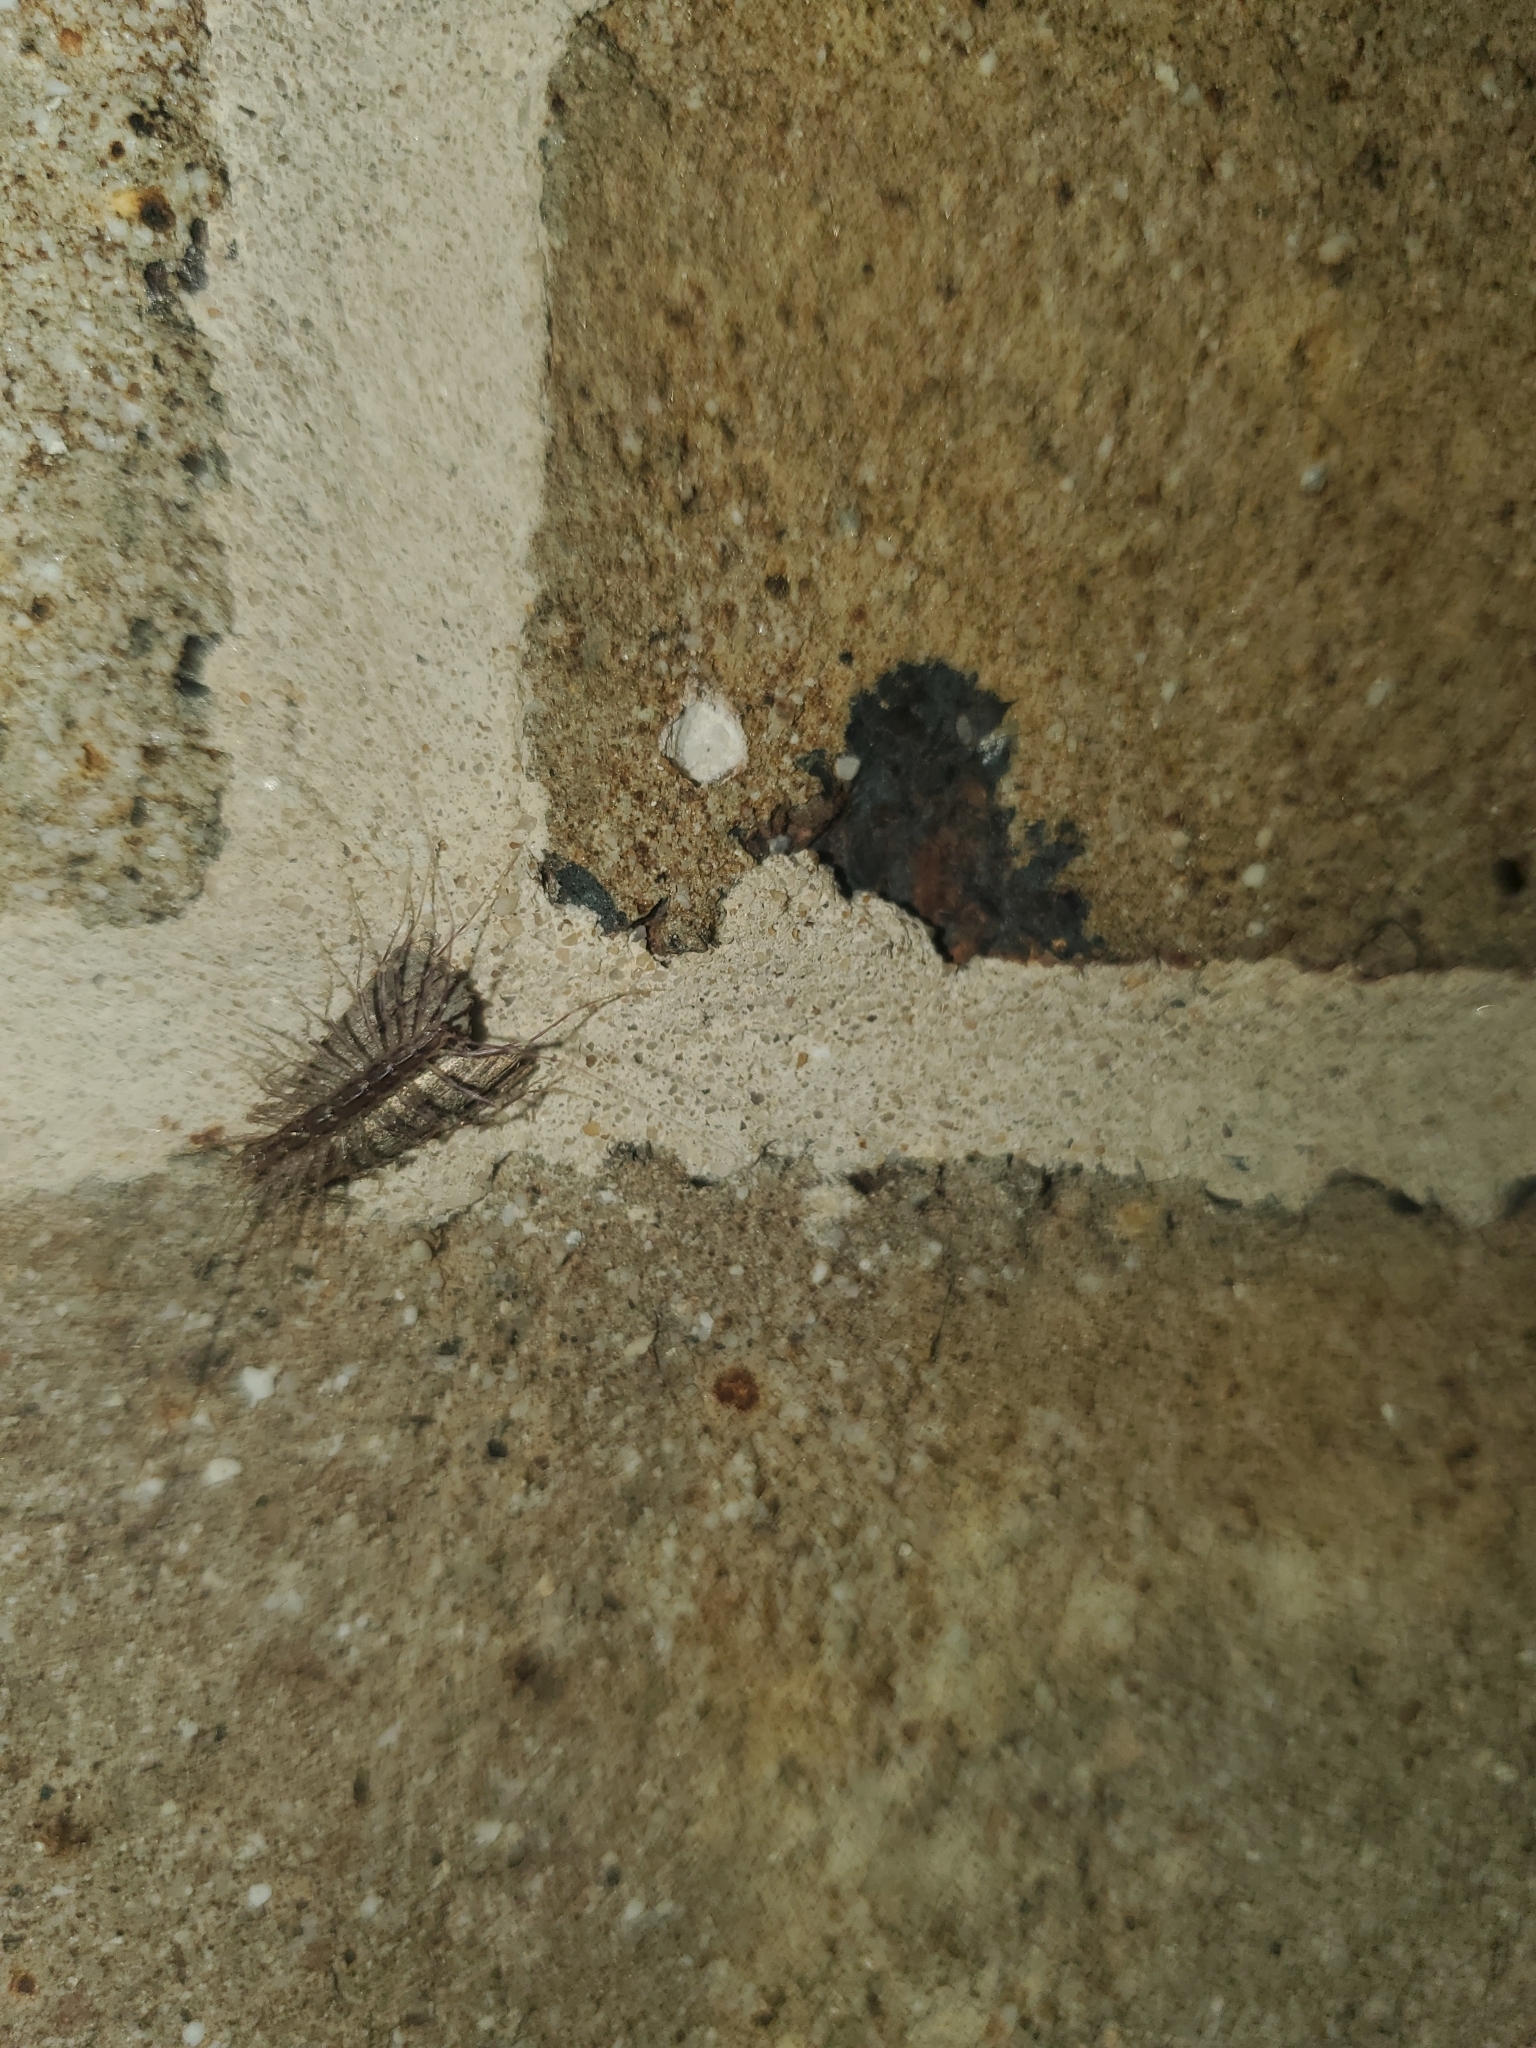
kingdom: Animalia
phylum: Arthropoda
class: Chilopoda
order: Scutigeromorpha
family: Scutigeridae
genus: Scutigera
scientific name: Scutigera coleoptrata
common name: House centipede
